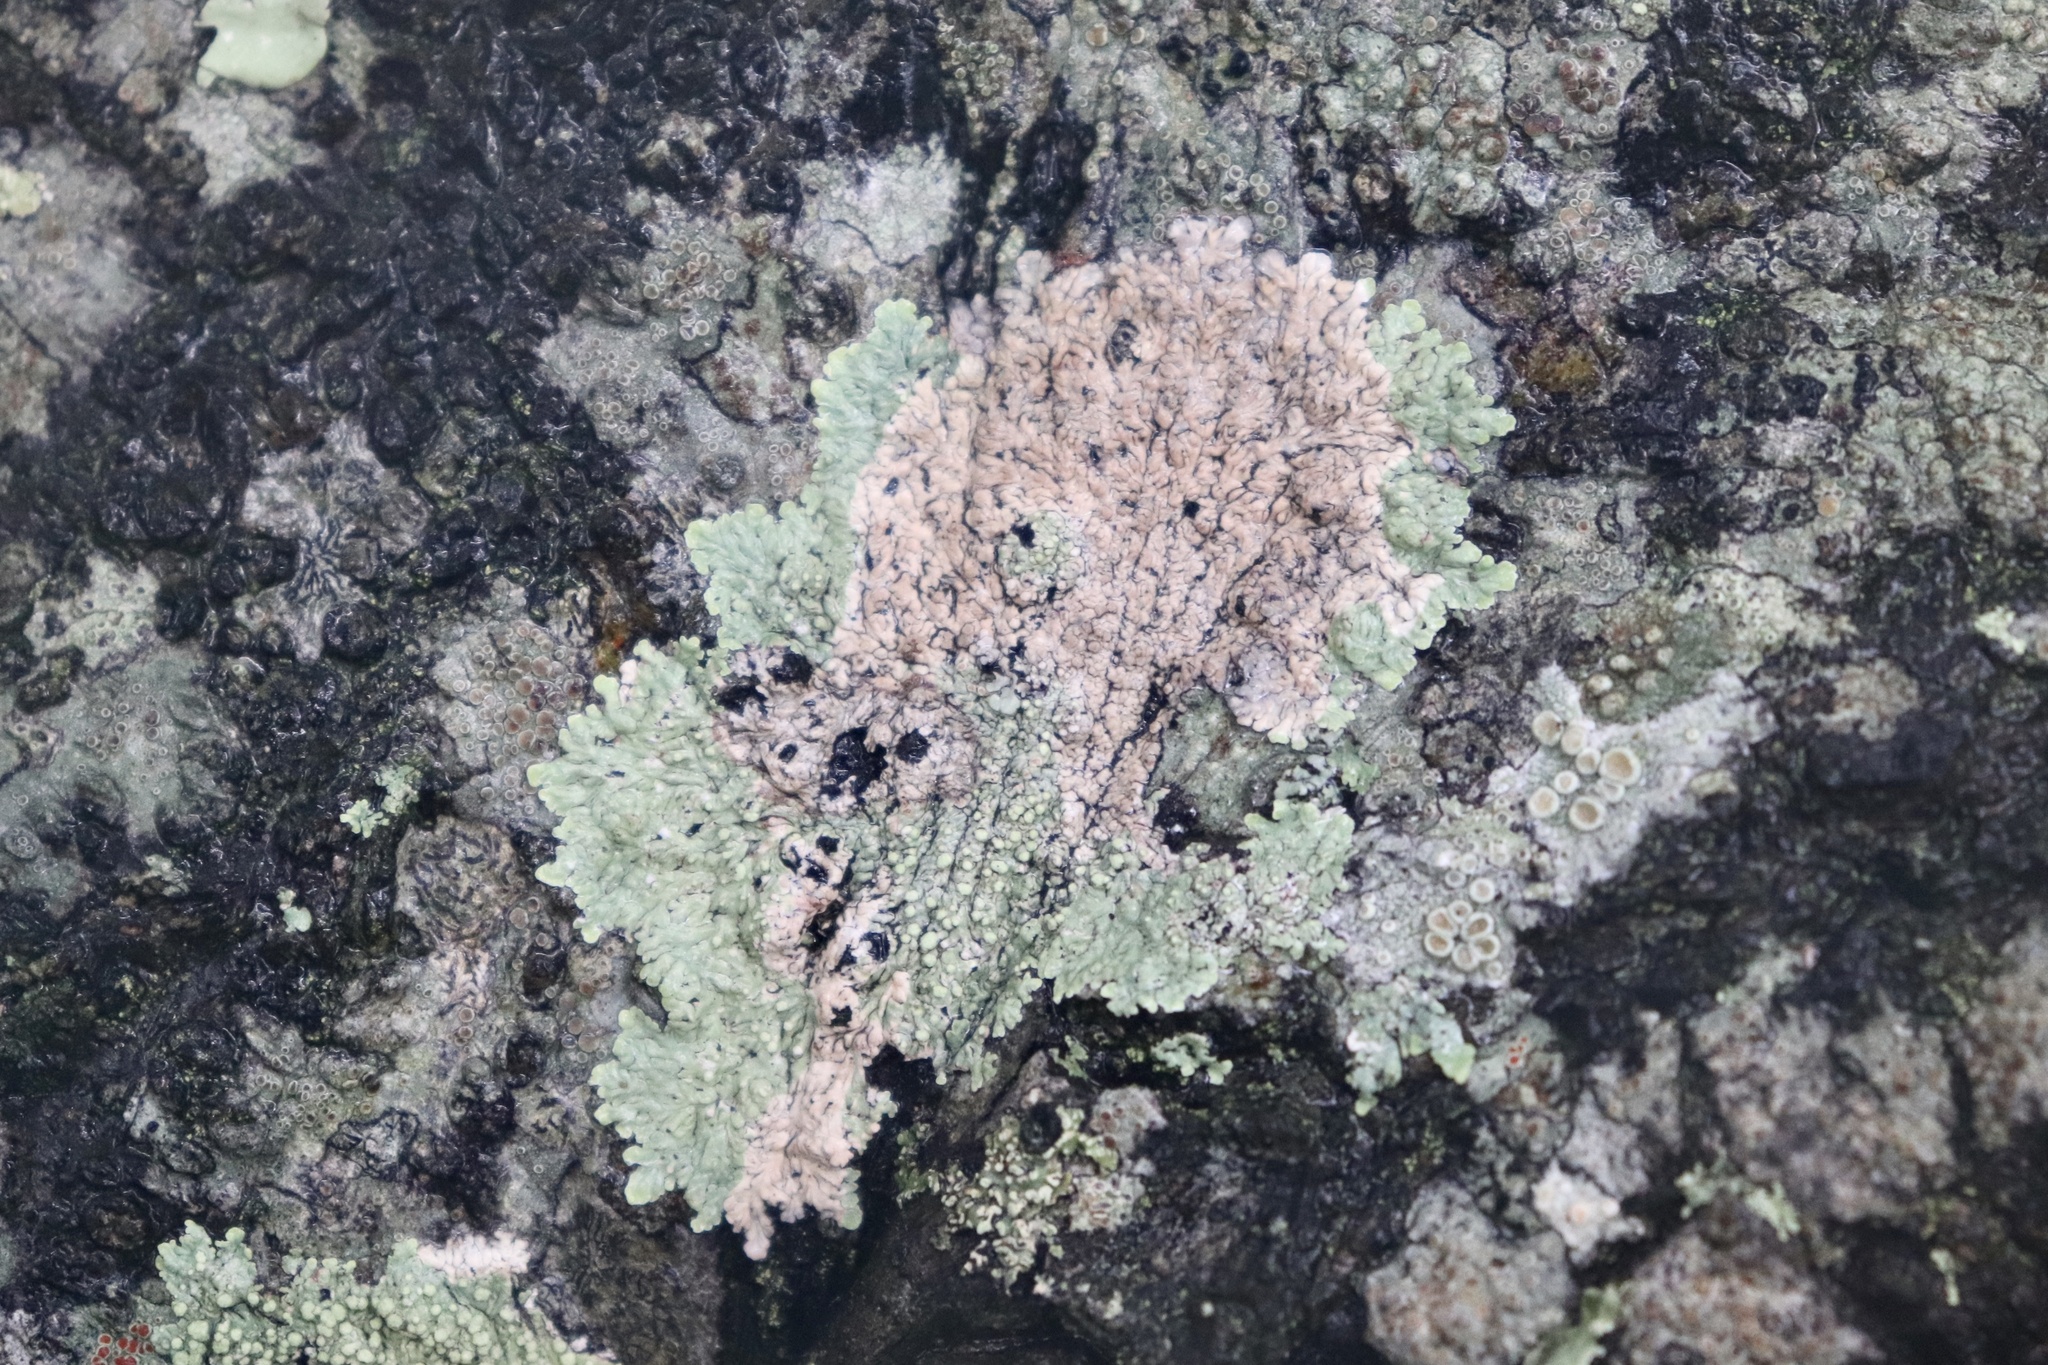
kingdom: Fungi
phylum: Ascomycota
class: Lecanoromycetes
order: Caliciales
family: Caliciaceae
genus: Dirinaria
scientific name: Dirinaria picta
